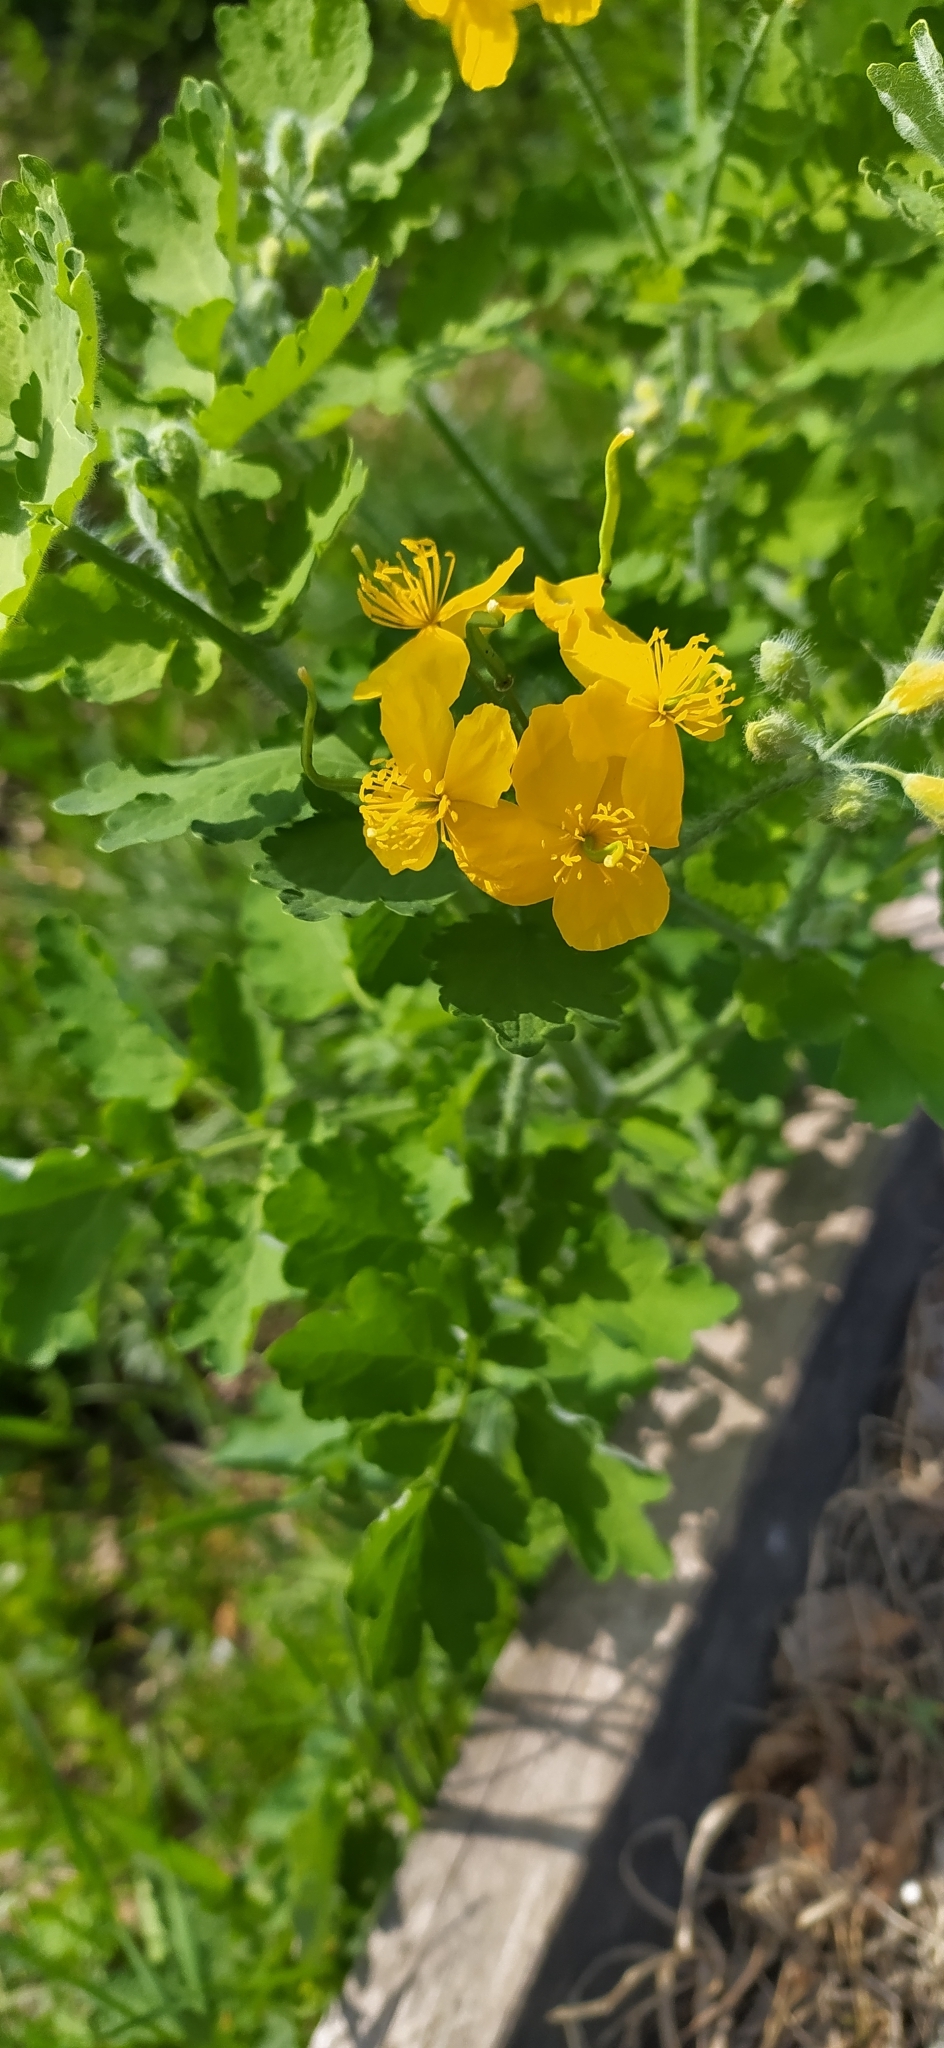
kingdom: Plantae
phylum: Tracheophyta
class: Magnoliopsida
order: Ranunculales
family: Papaveraceae
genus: Chelidonium
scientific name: Chelidonium majus
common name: Greater celandine
